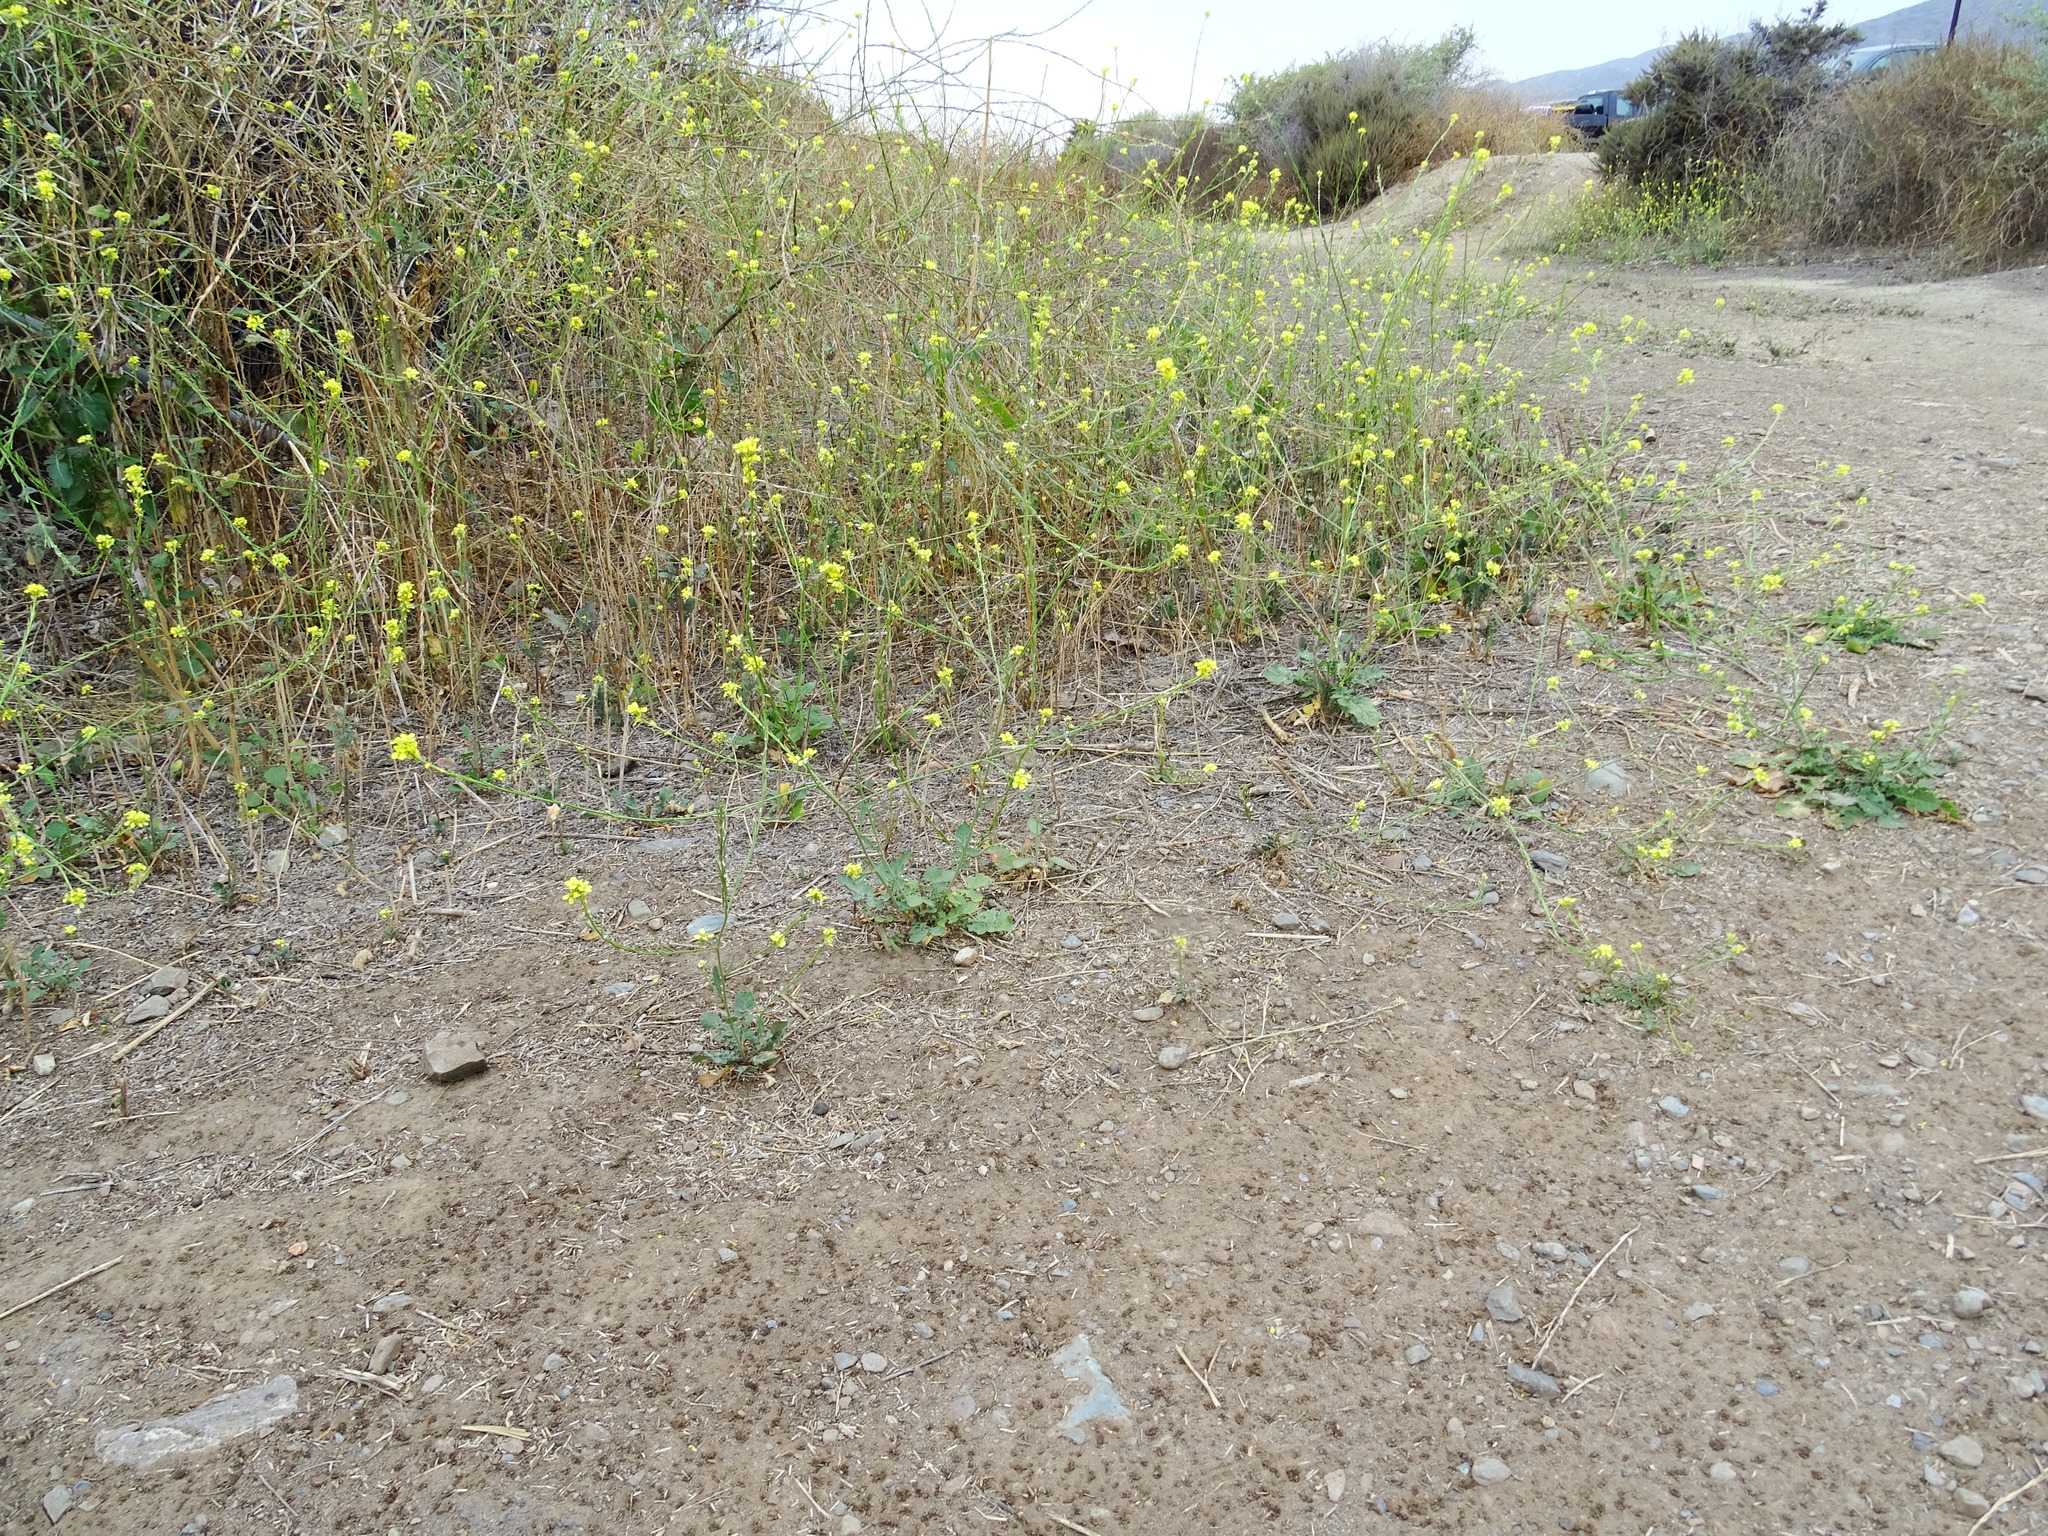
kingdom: Plantae
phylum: Tracheophyta
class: Magnoliopsida
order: Brassicales
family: Brassicaceae
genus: Hirschfeldia
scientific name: Hirschfeldia incana
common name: Hoary mustard
